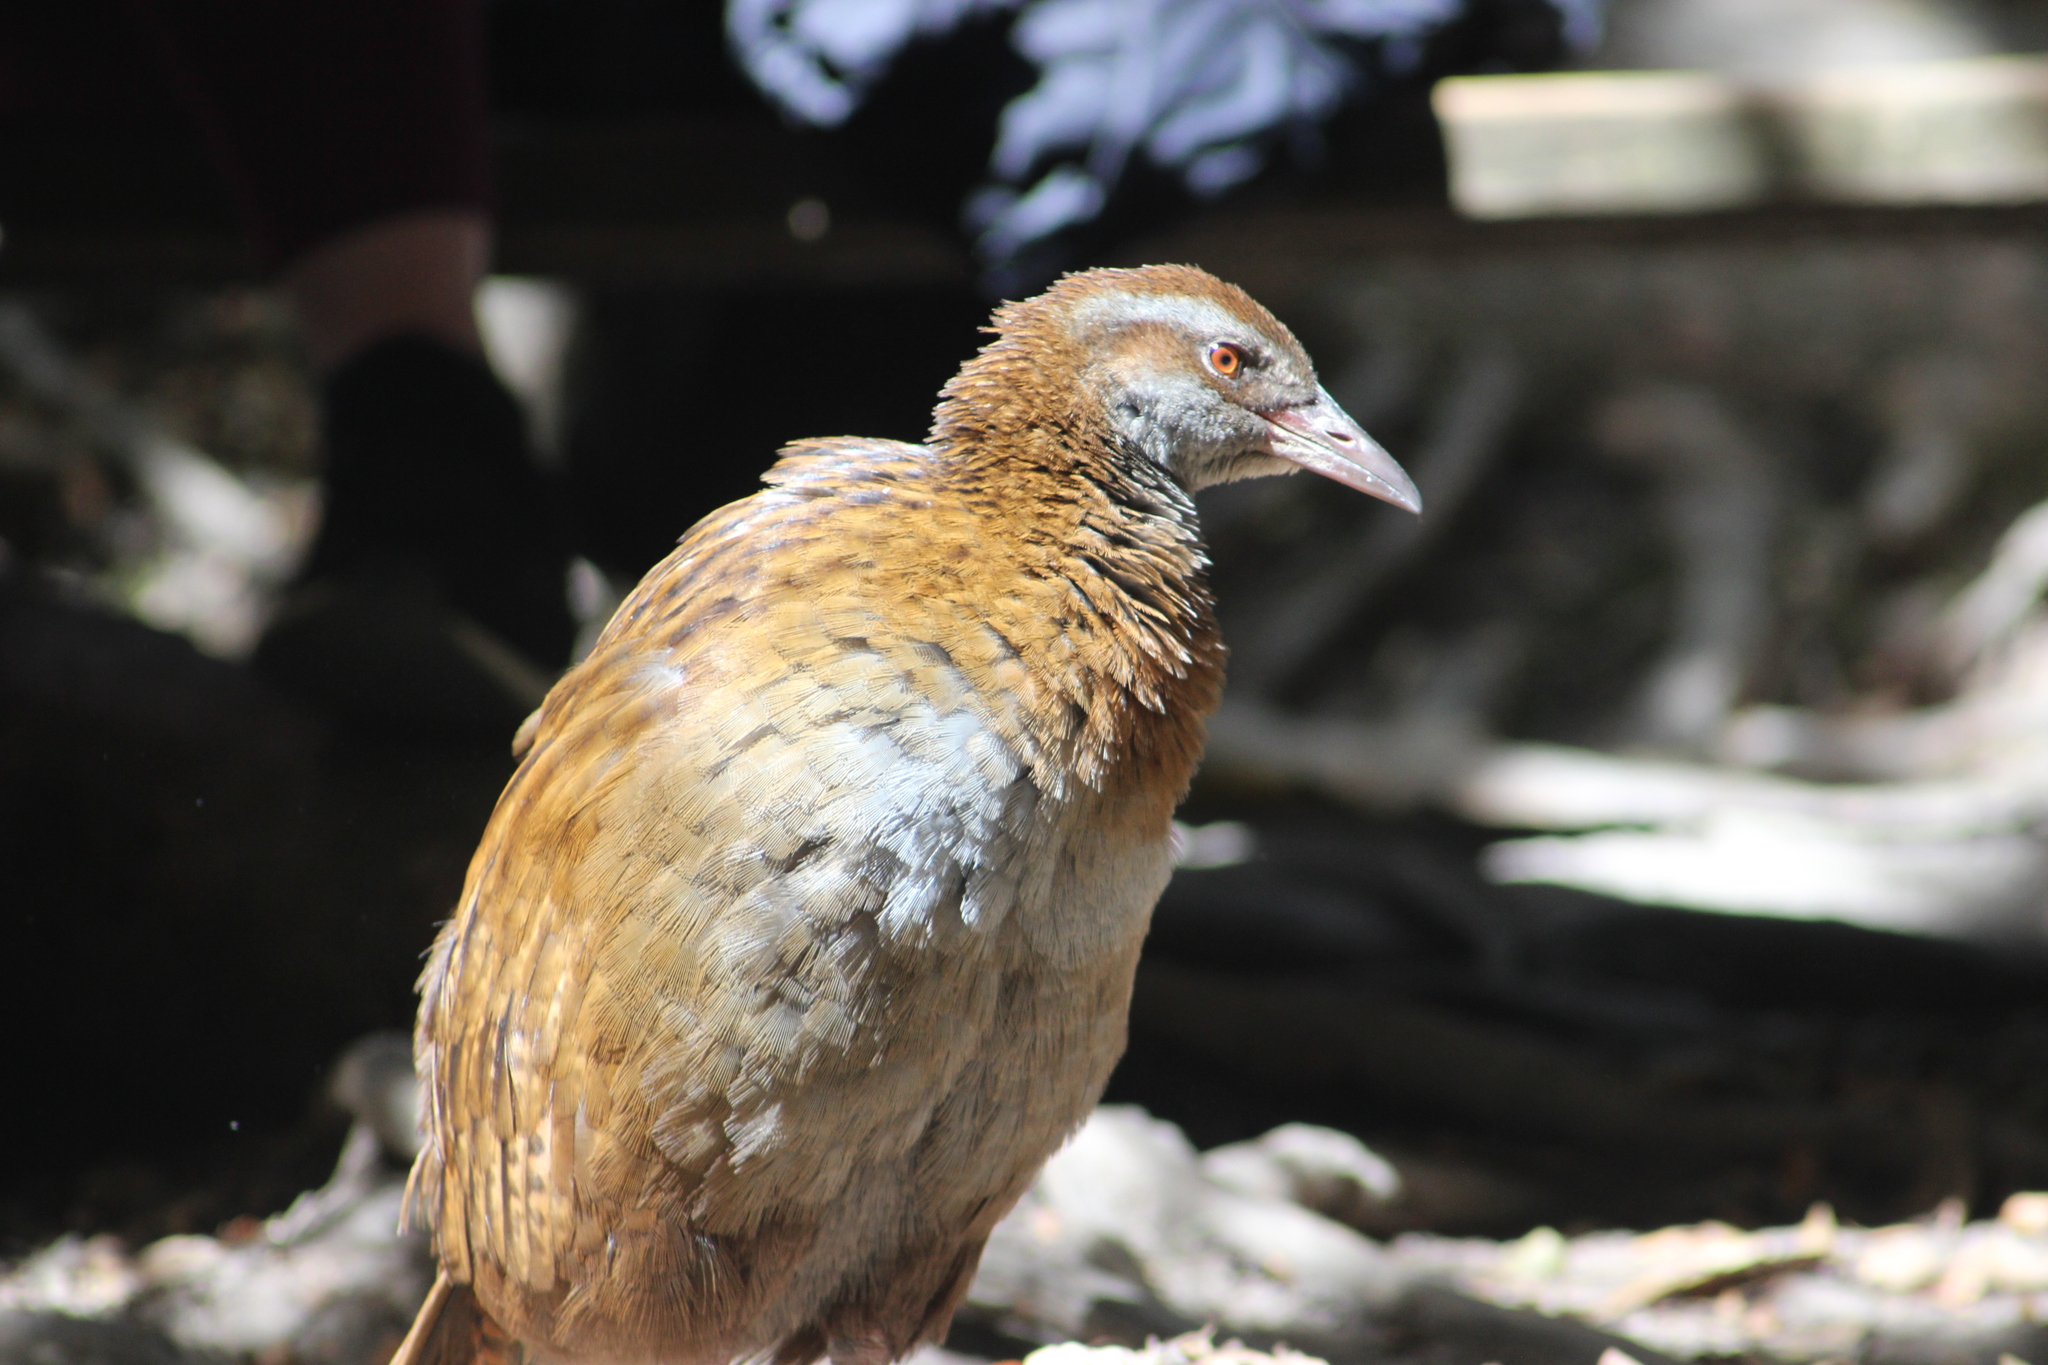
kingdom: Animalia
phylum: Chordata
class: Aves
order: Gruiformes
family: Rallidae
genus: Gallirallus
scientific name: Gallirallus
